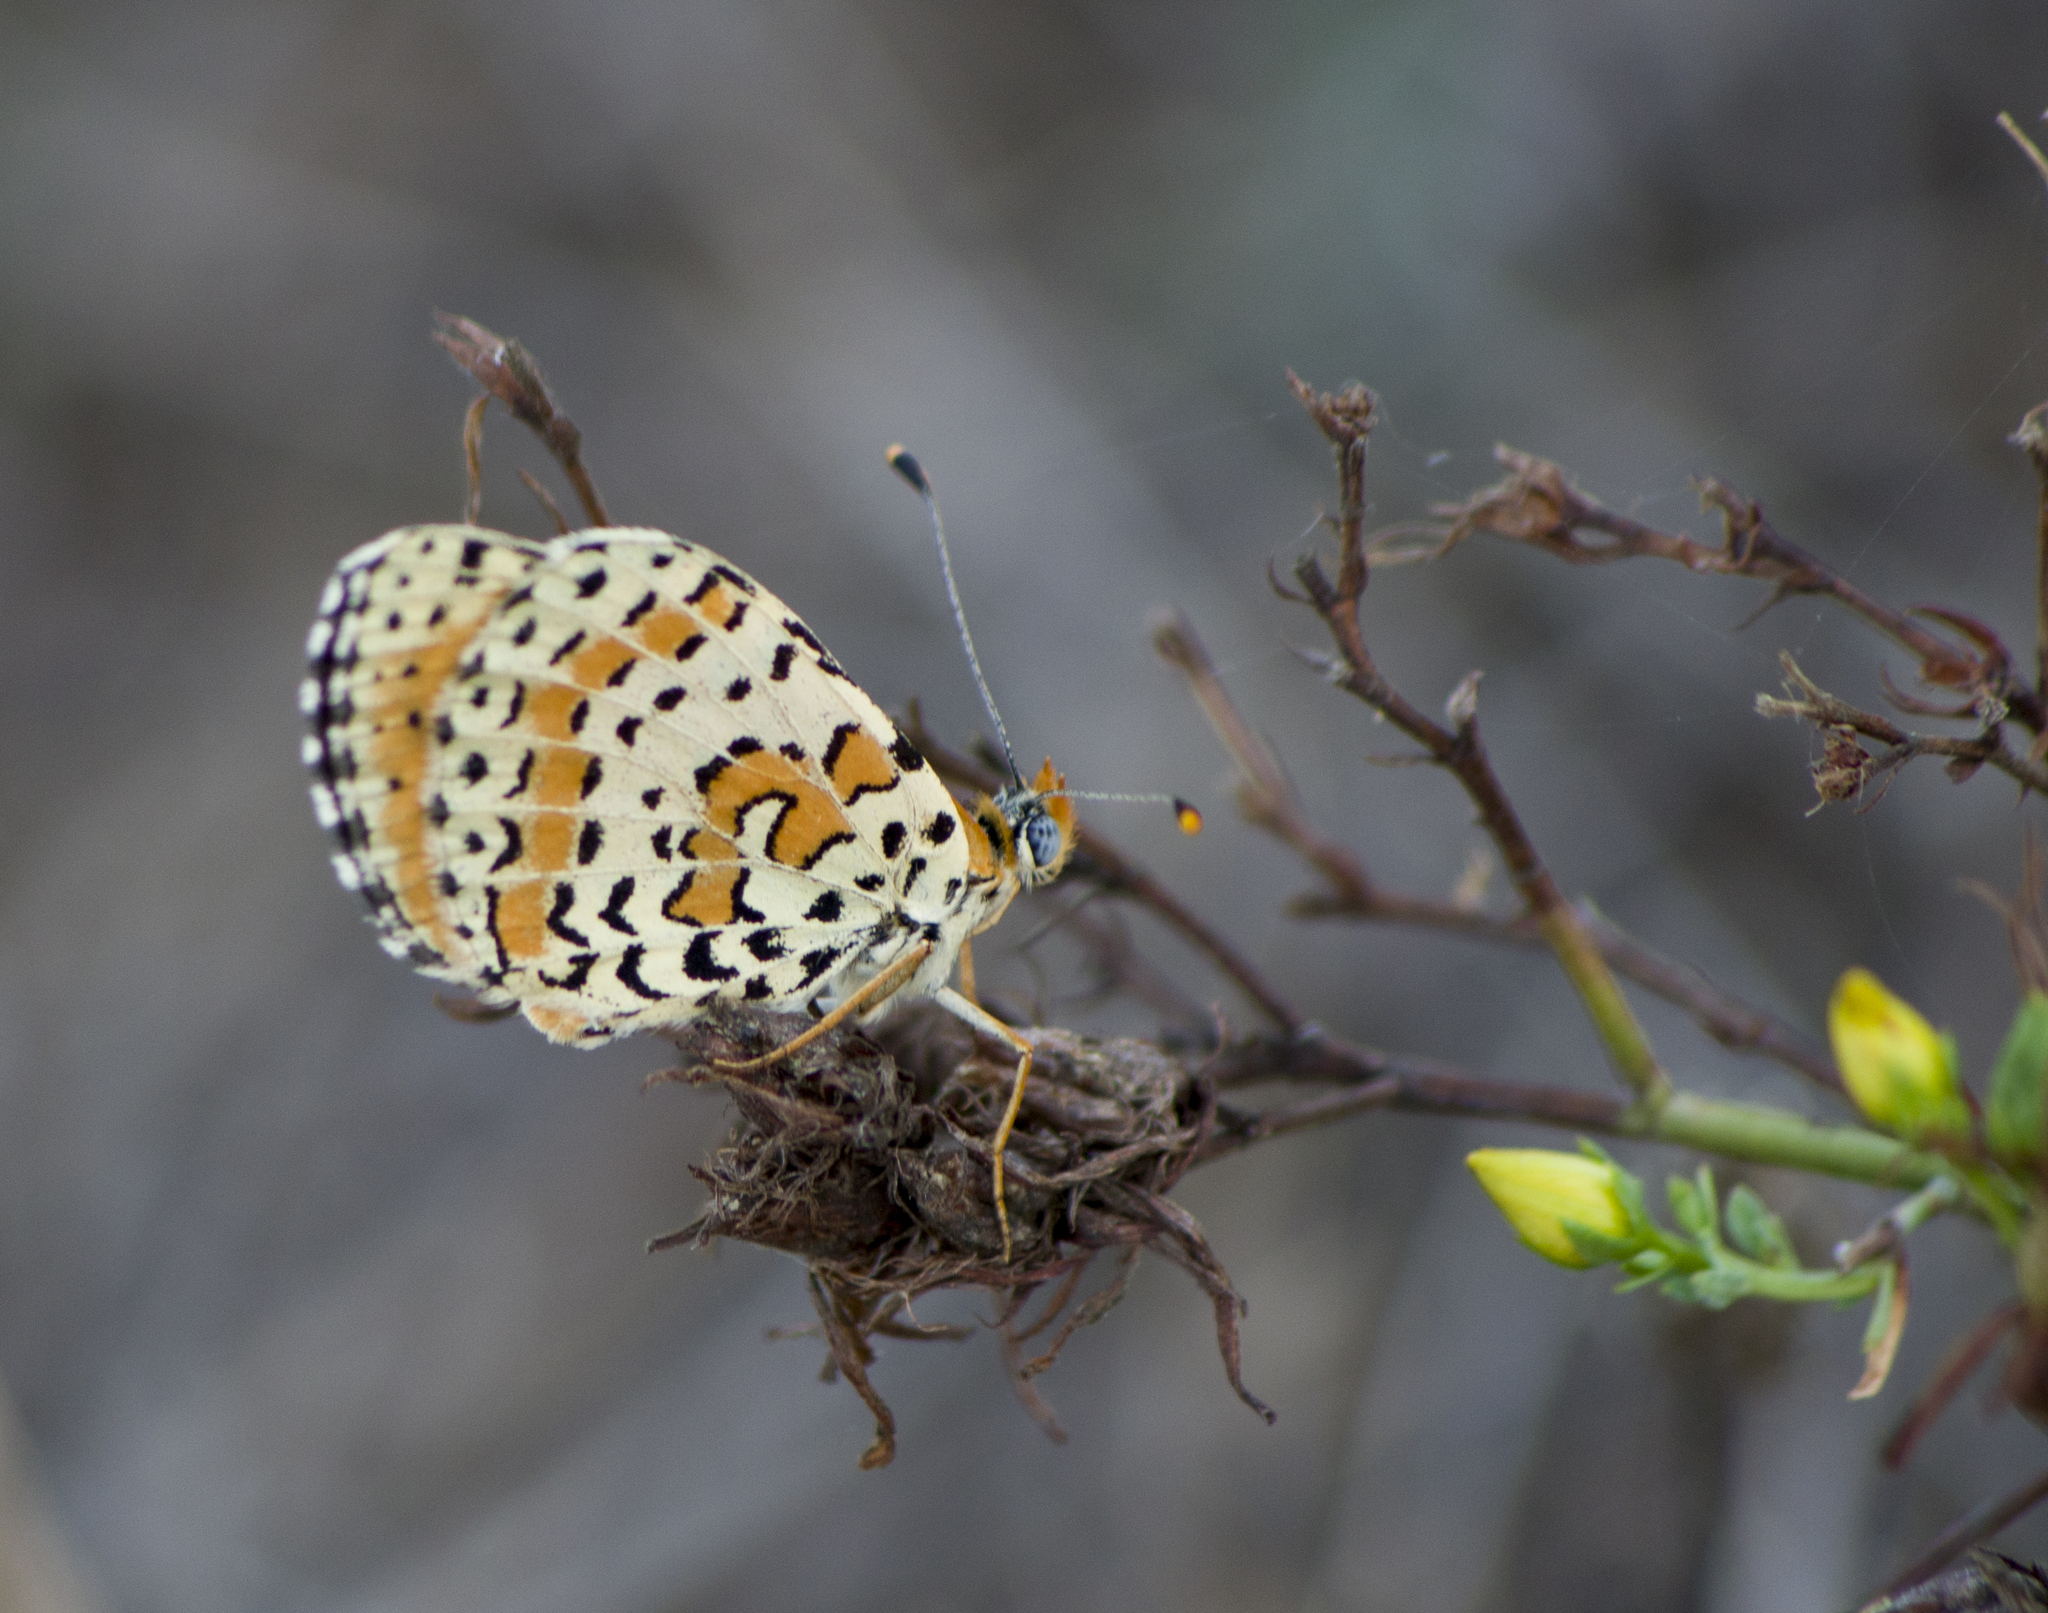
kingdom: Animalia
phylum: Arthropoda
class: Insecta
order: Lepidoptera
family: Nymphalidae
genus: Melitaea
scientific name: Melitaea didyma
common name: Spotted fritillary
